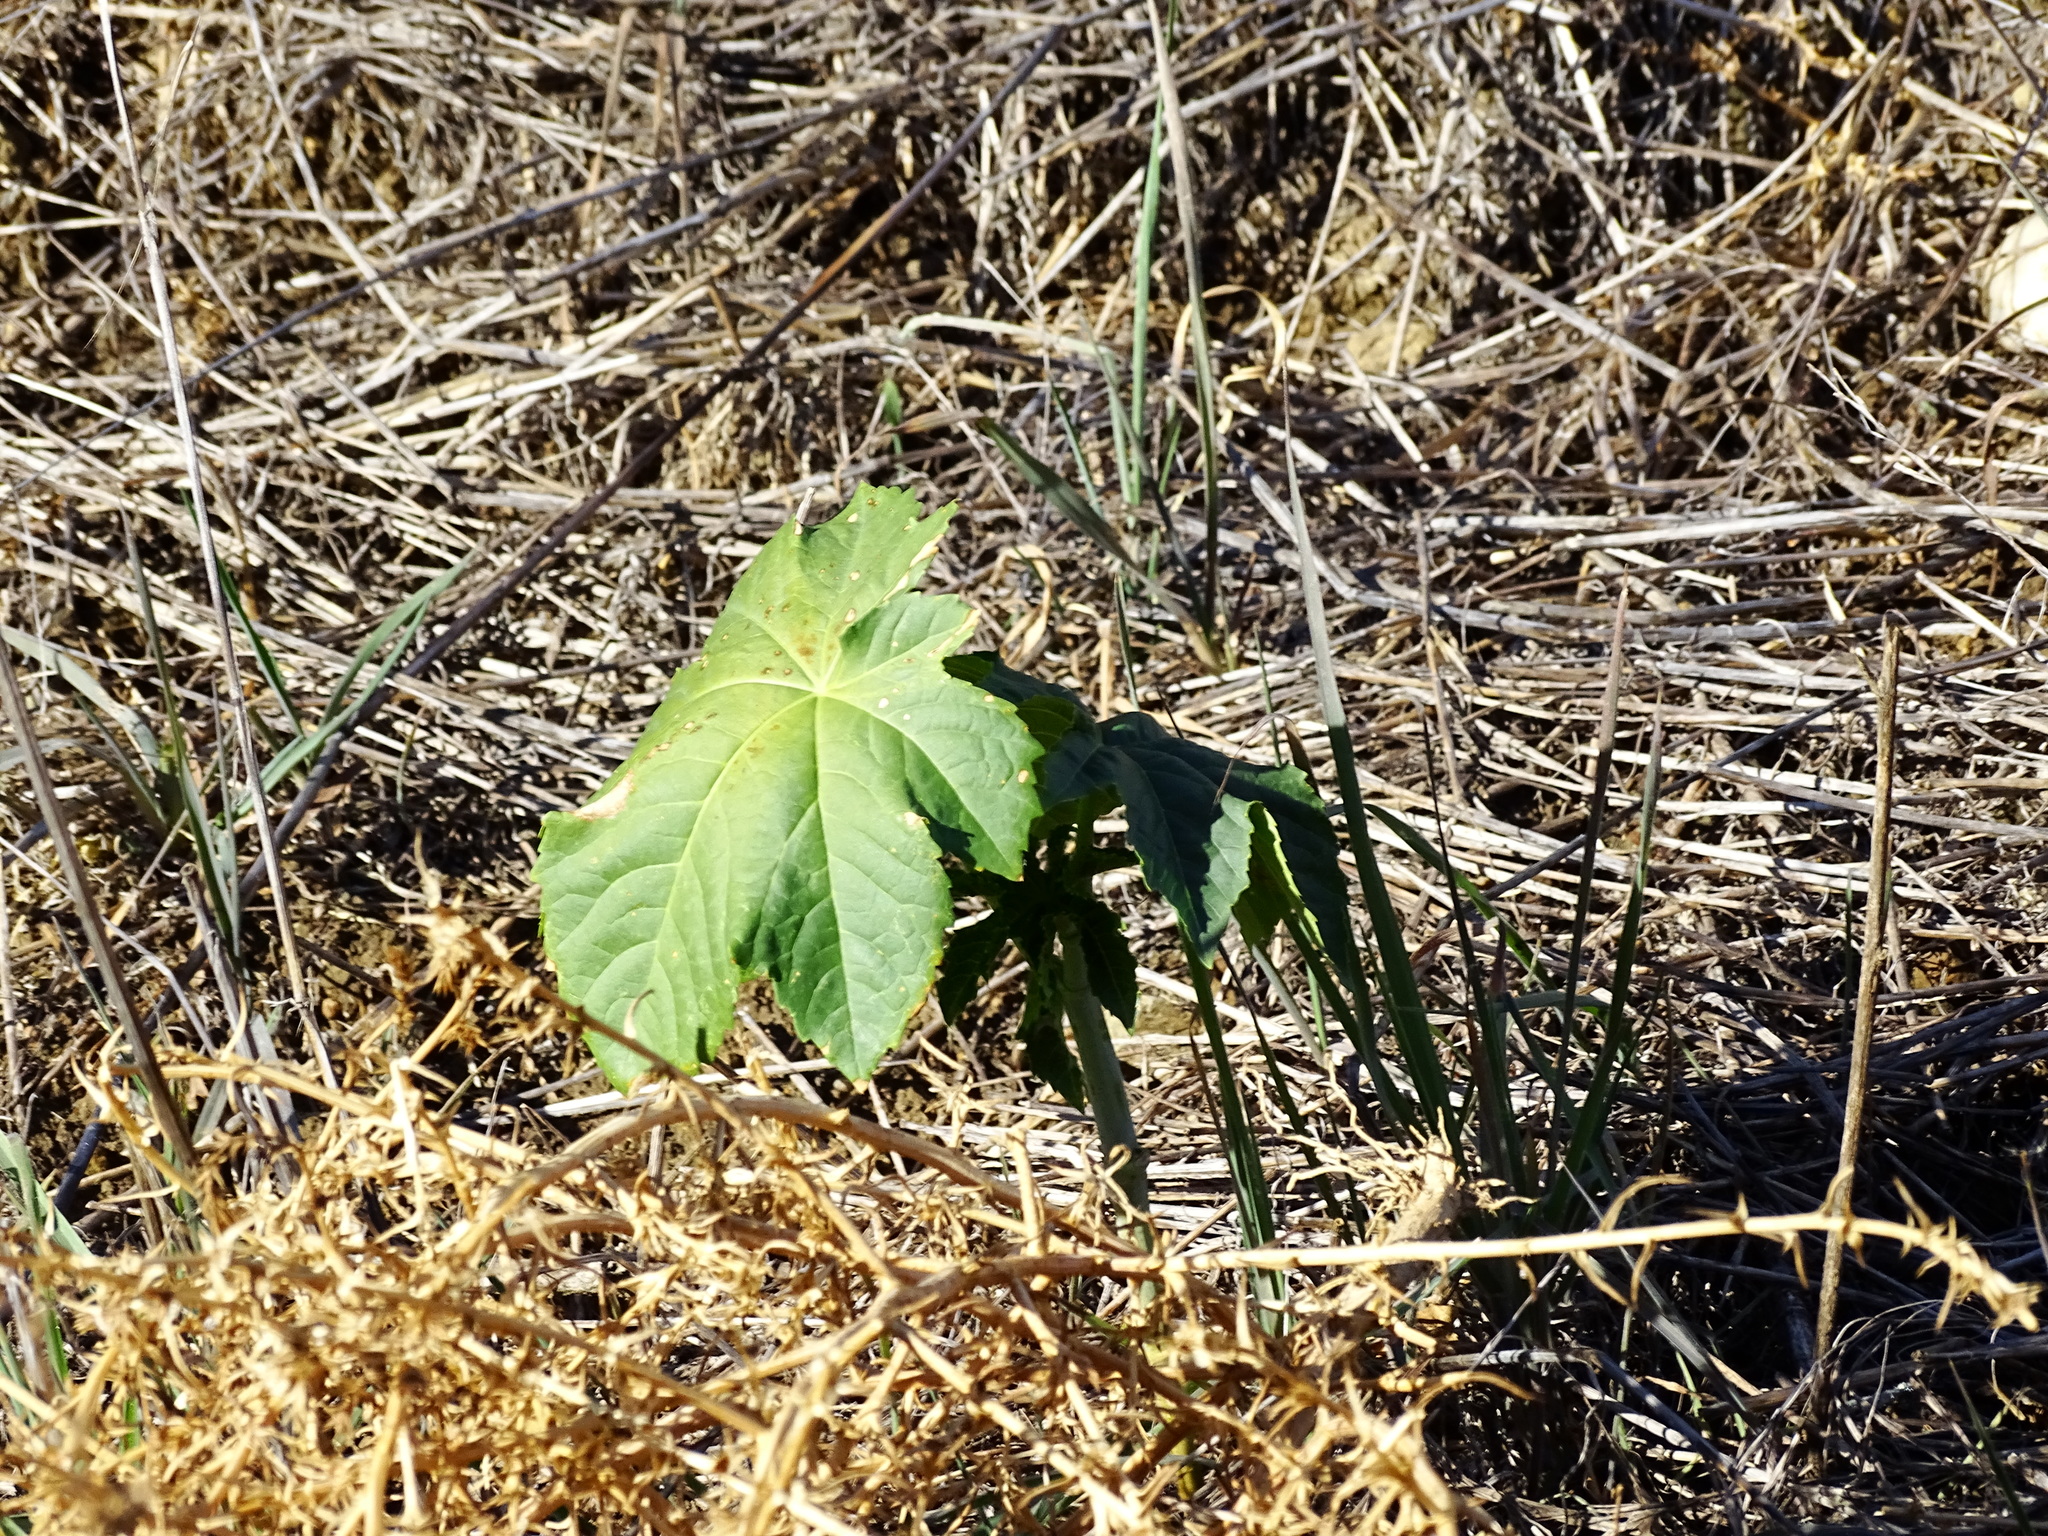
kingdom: Plantae
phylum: Tracheophyta
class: Magnoliopsida
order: Malpighiales
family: Euphorbiaceae
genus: Ricinus
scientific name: Ricinus communis
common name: Castor-oil-plant
